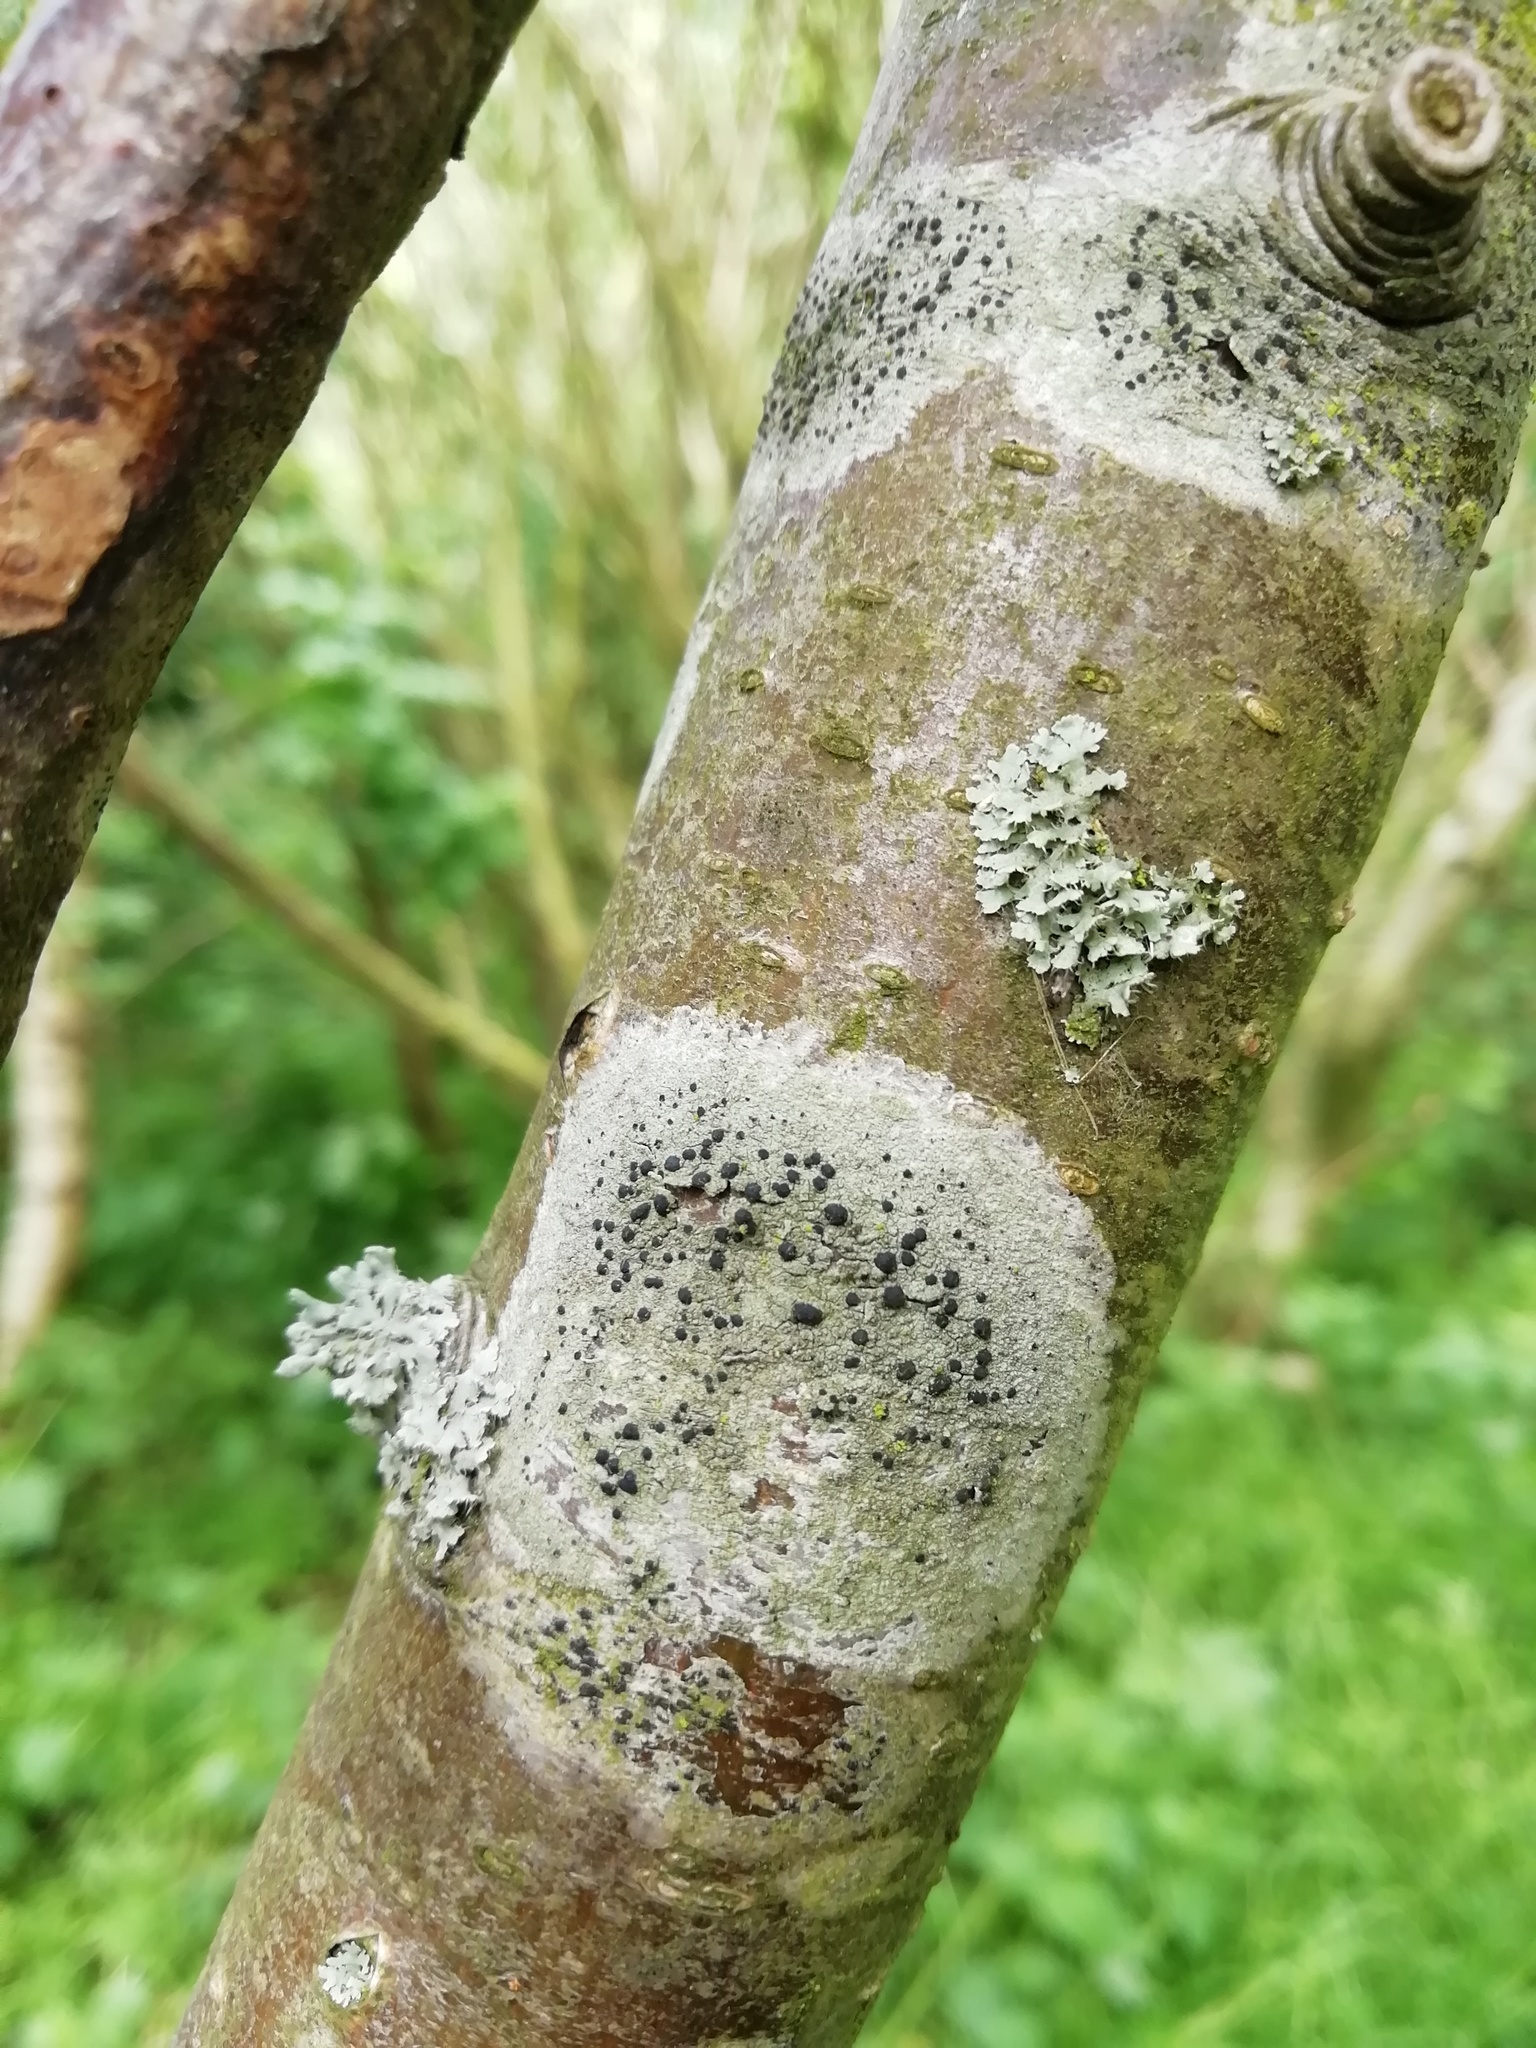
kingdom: Fungi
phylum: Ascomycota
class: Lecanoromycetes
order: Lecanorales
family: Lecanoraceae
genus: Lecidella
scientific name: Lecidella elaeochroma
